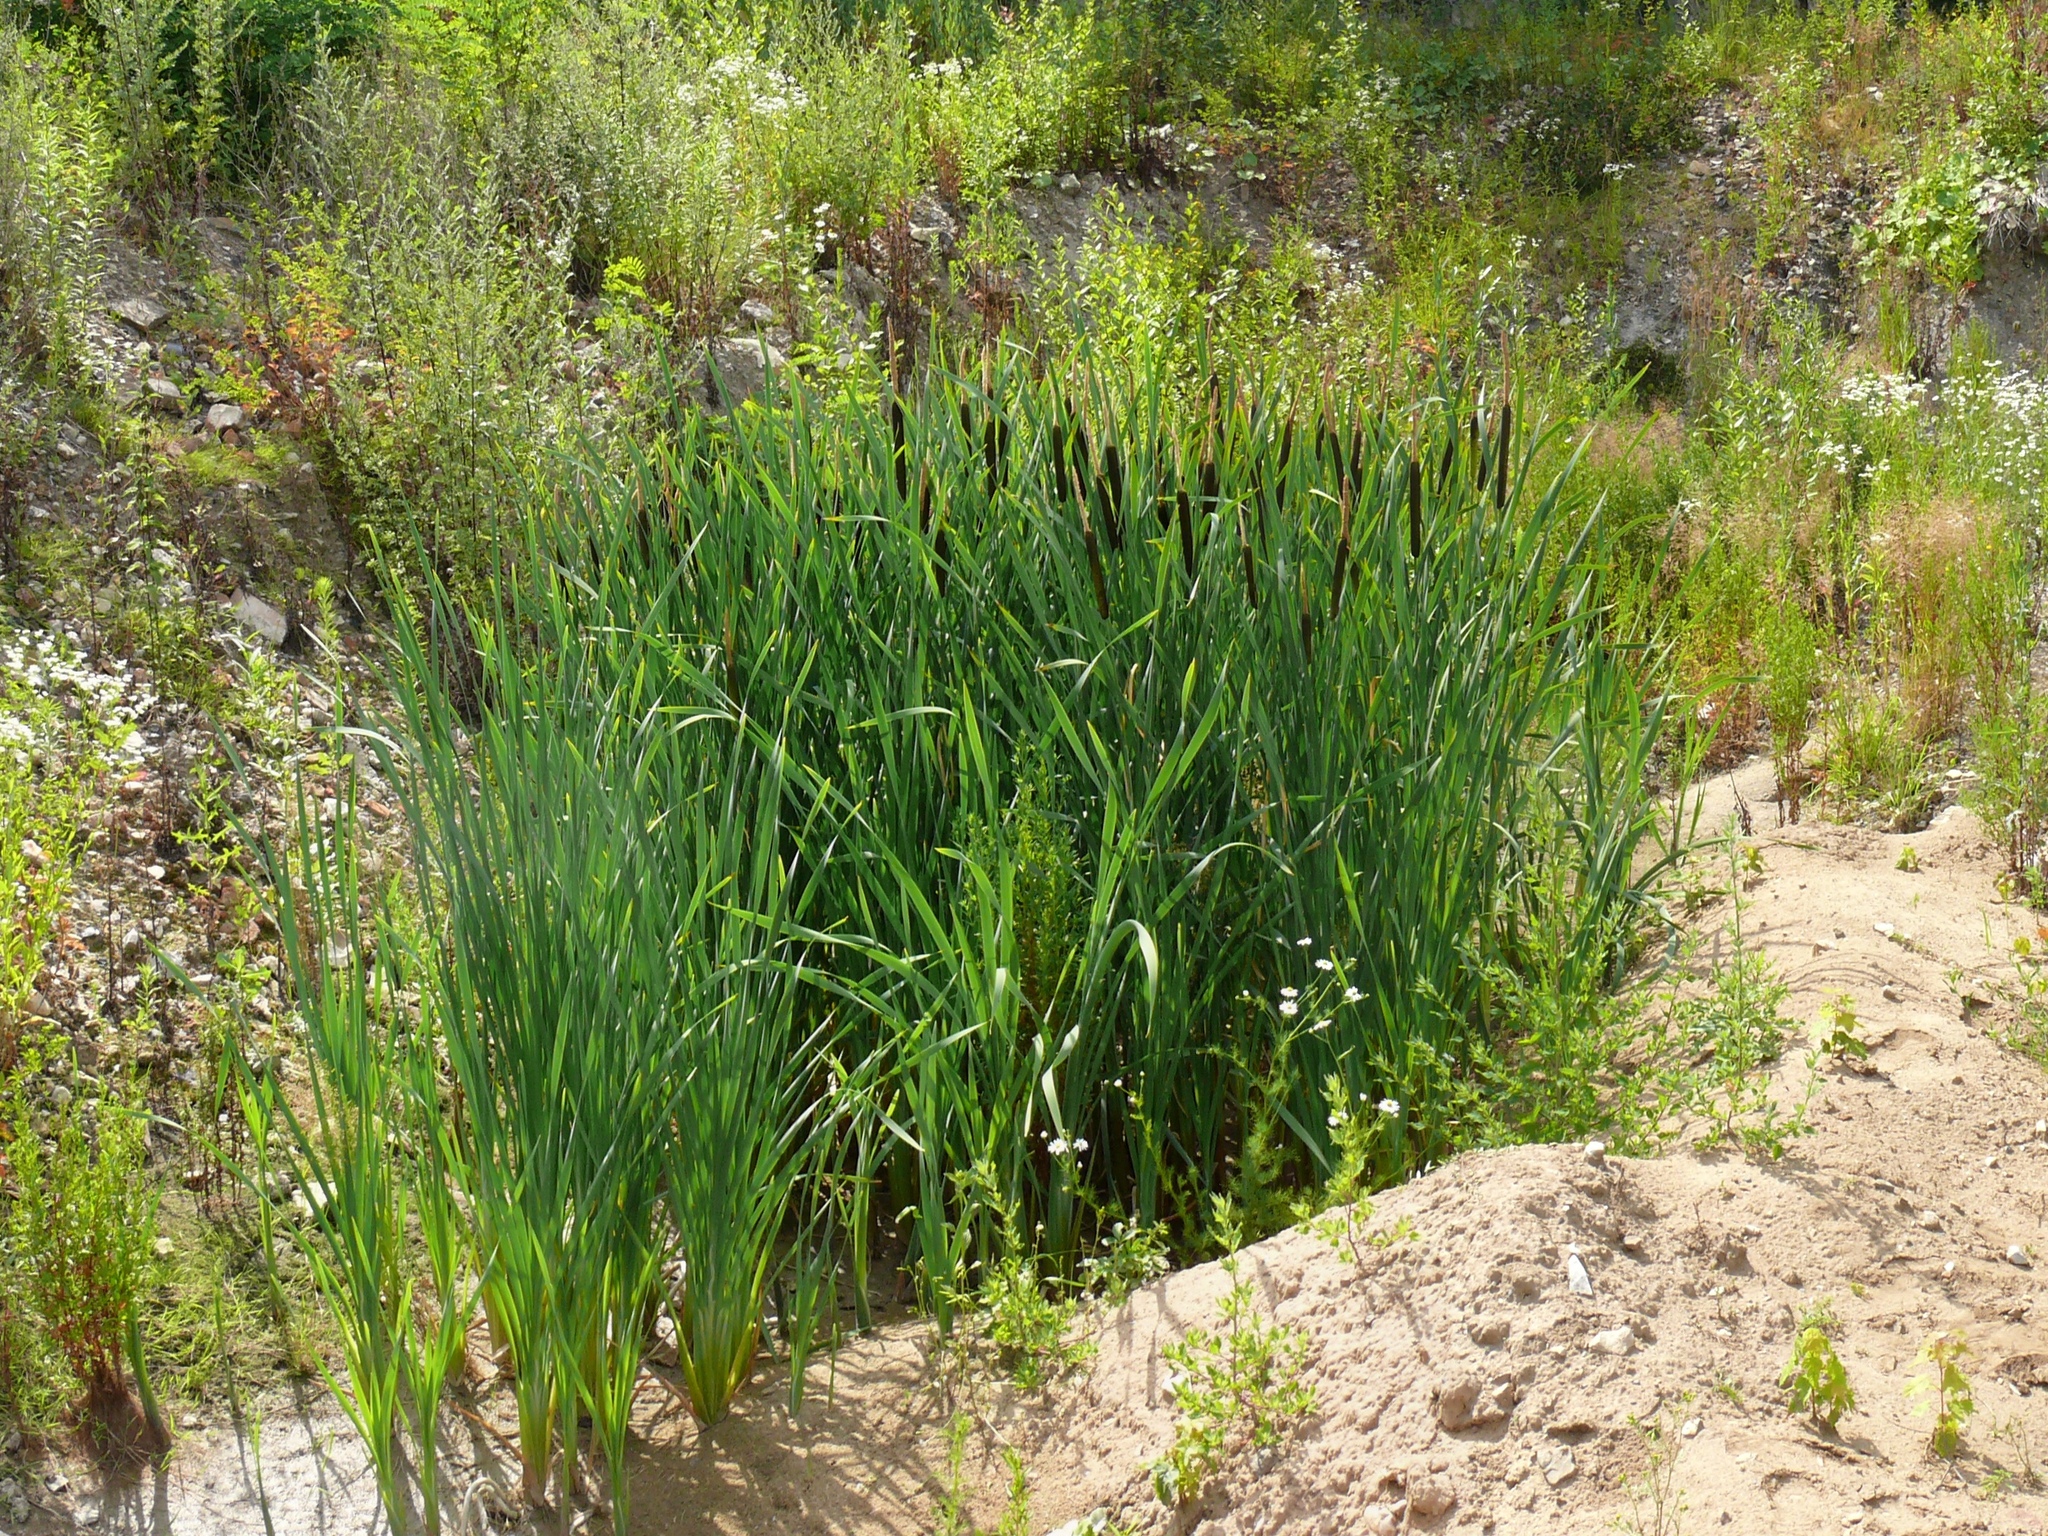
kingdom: Plantae
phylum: Tracheophyta
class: Liliopsida
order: Poales
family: Typhaceae
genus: Typha
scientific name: Typha latifolia
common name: Broadleaf cattail
